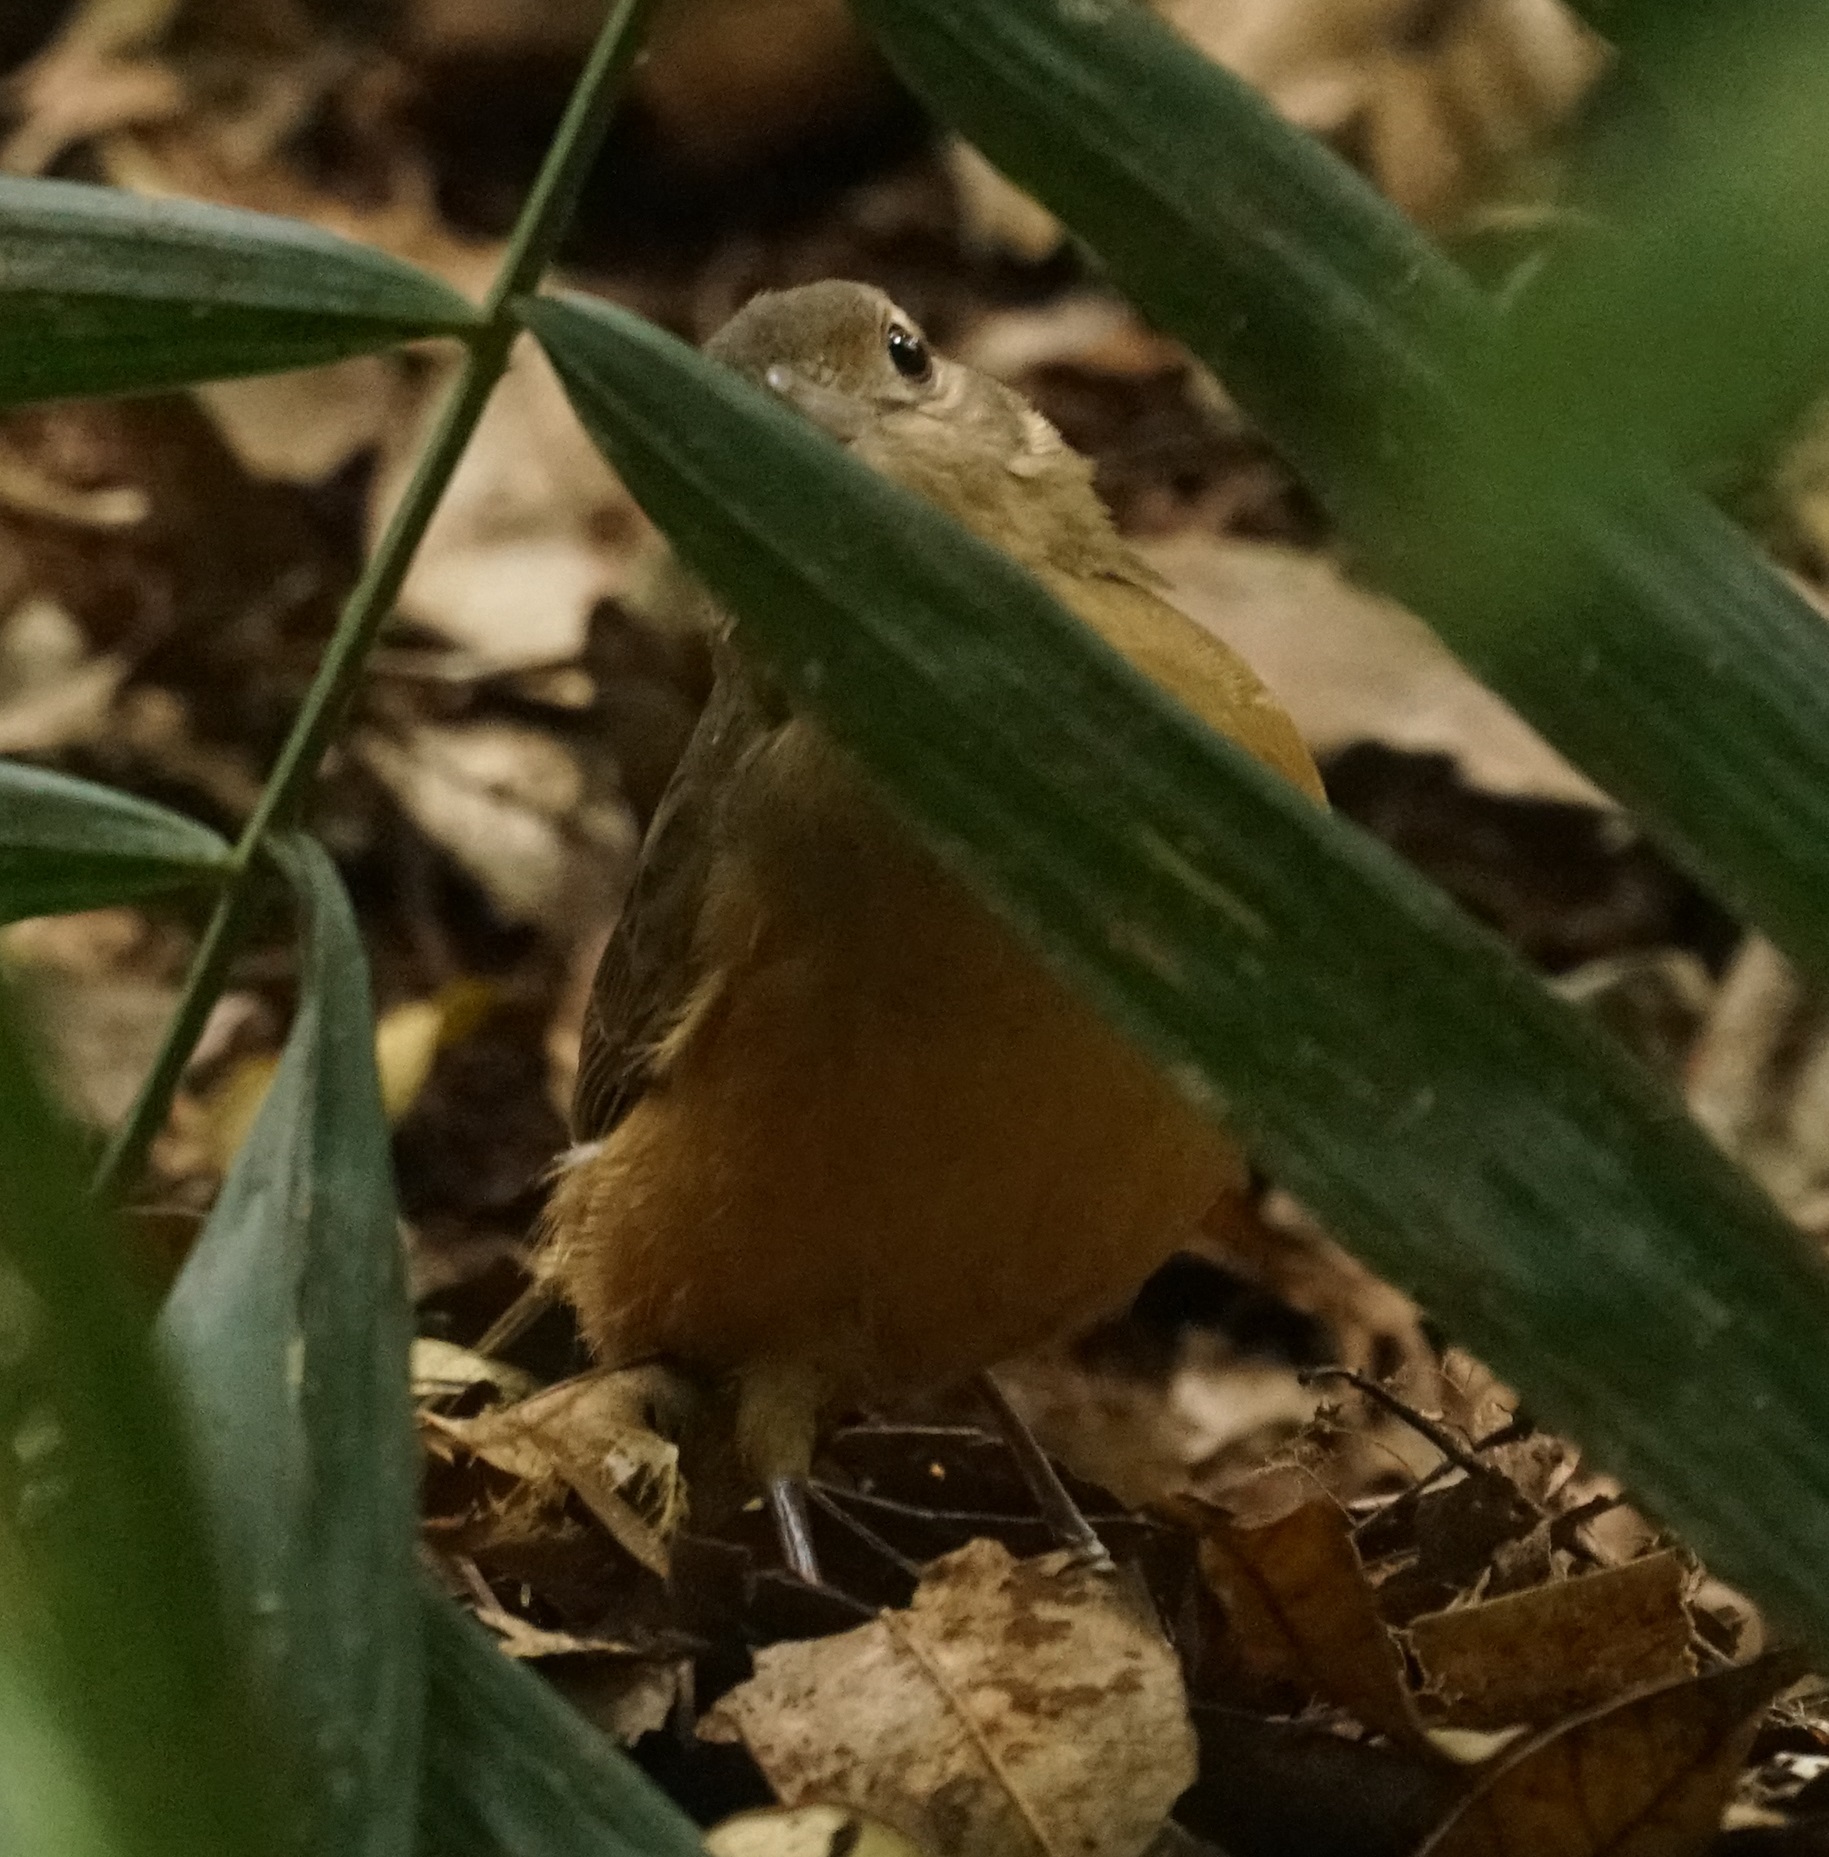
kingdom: Animalia
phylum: Chordata
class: Aves
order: Passeriformes
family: Pachycephalidae
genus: Colluricincla
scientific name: Colluricincla rufogaster
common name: Rufous shrikethrush
